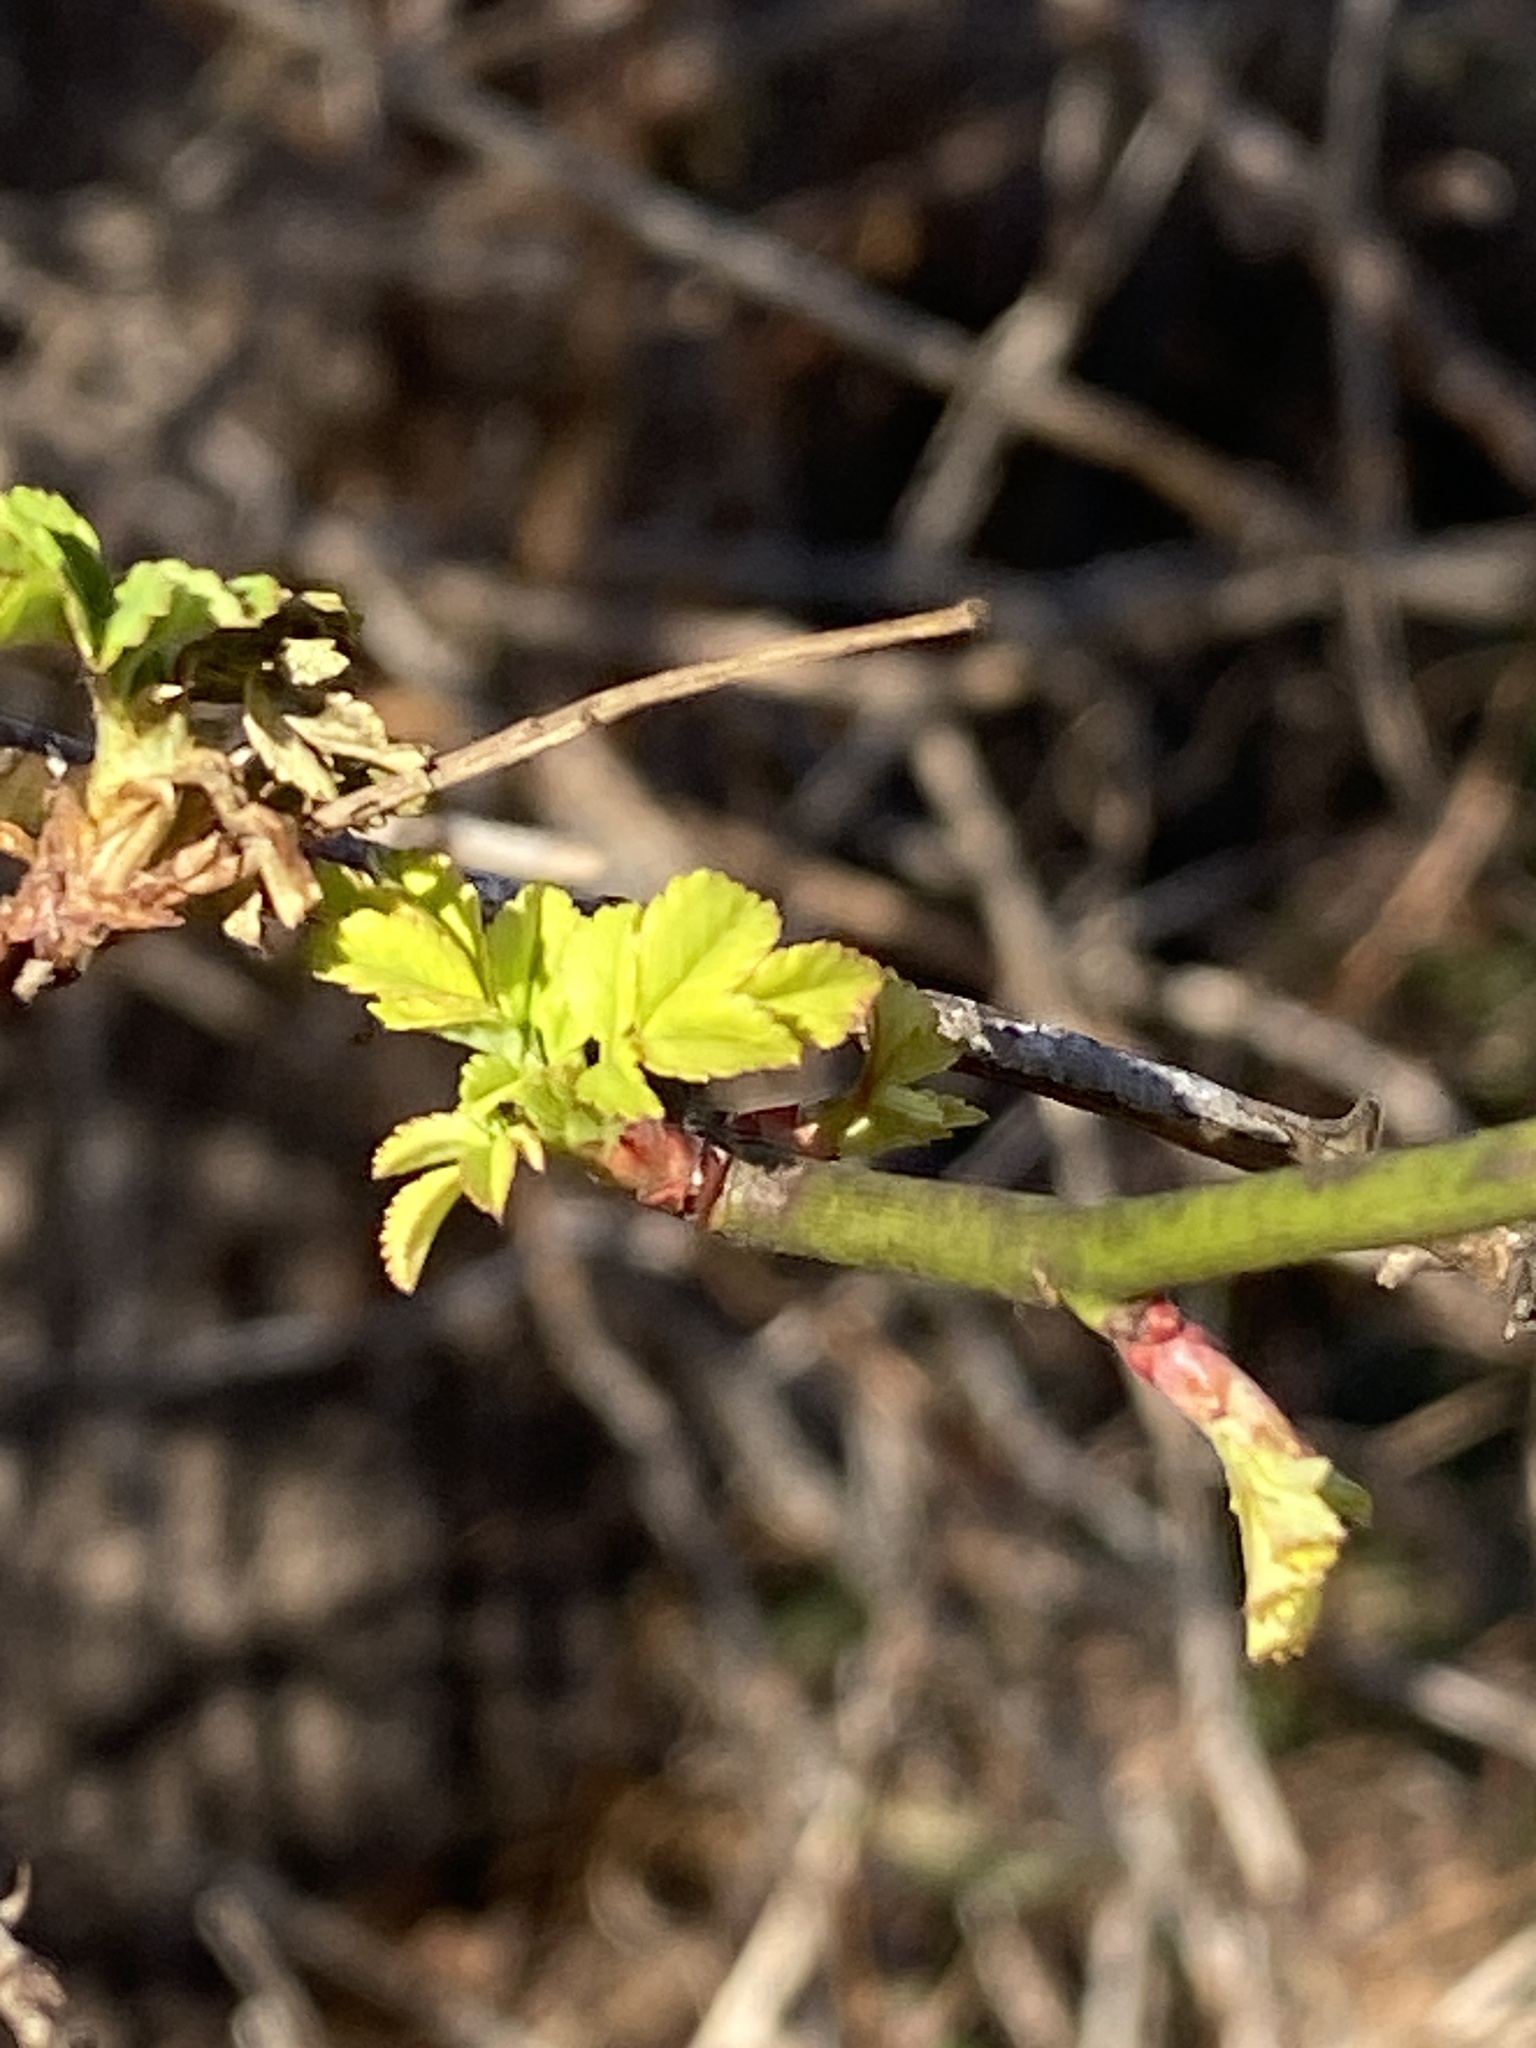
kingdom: Plantae
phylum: Tracheophyta
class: Magnoliopsida
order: Rosales
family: Rosaceae
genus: Rosa
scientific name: Rosa multiflora
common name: Multiflora rose
